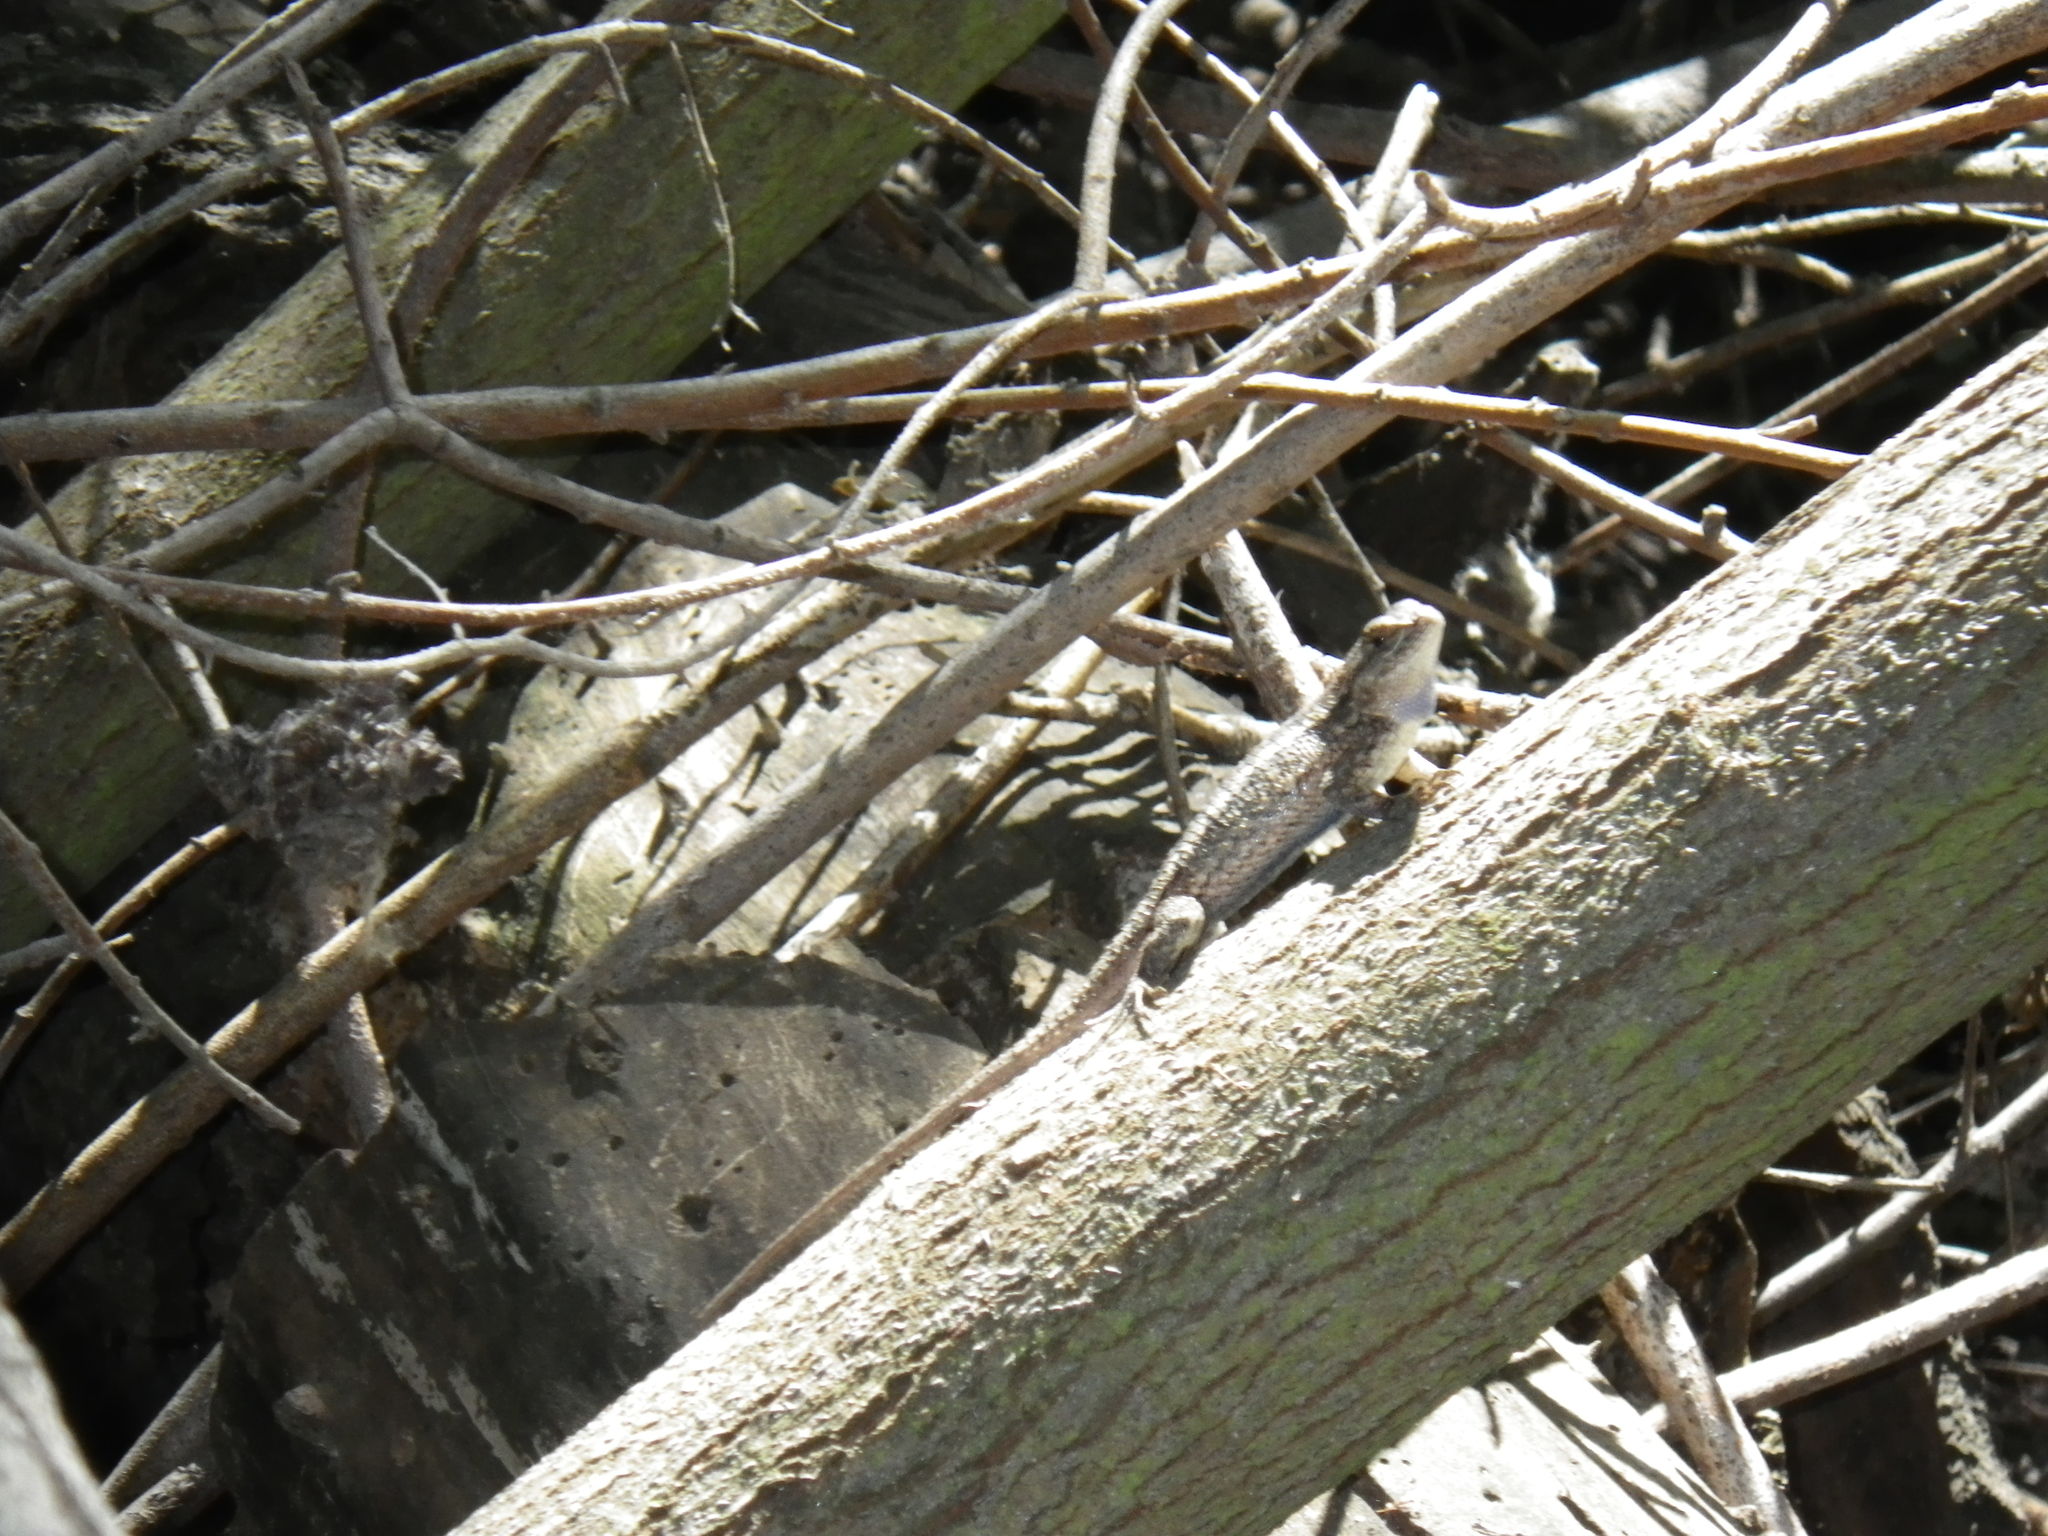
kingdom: Animalia
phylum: Chordata
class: Squamata
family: Phrynosomatidae
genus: Sceloporus
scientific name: Sceloporus occidentalis
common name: Western fence lizard
